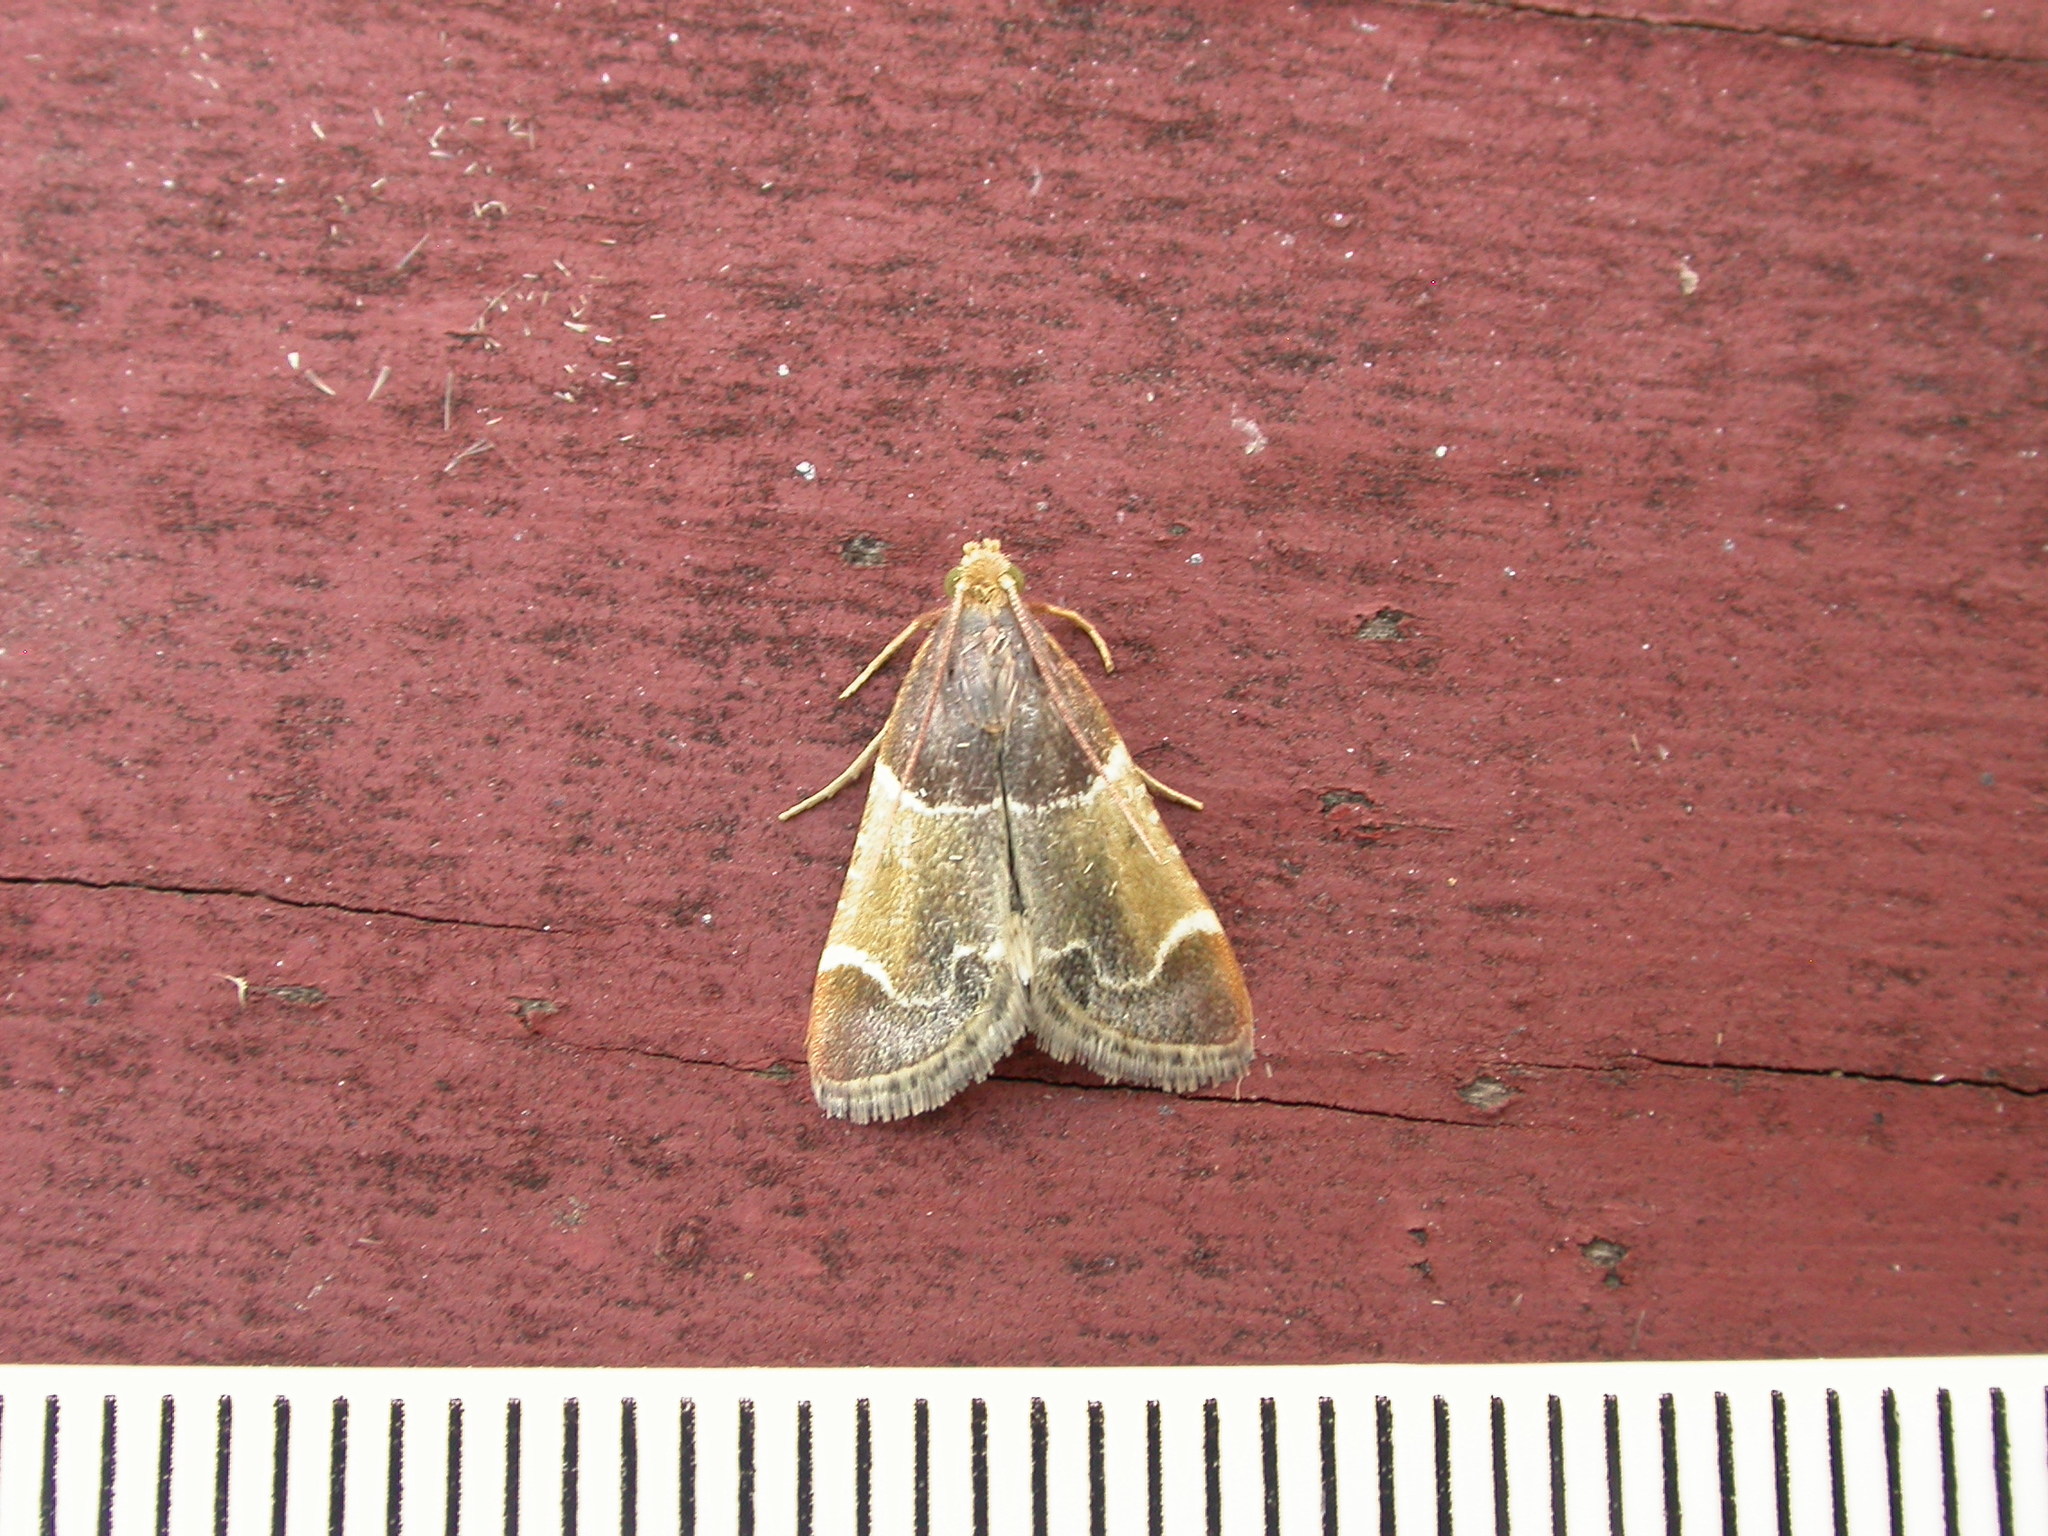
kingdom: Animalia
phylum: Arthropoda
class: Insecta
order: Lepidoptera
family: Pyralidae
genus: Pyralis
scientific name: Pyralis farinalis
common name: Meal moth
